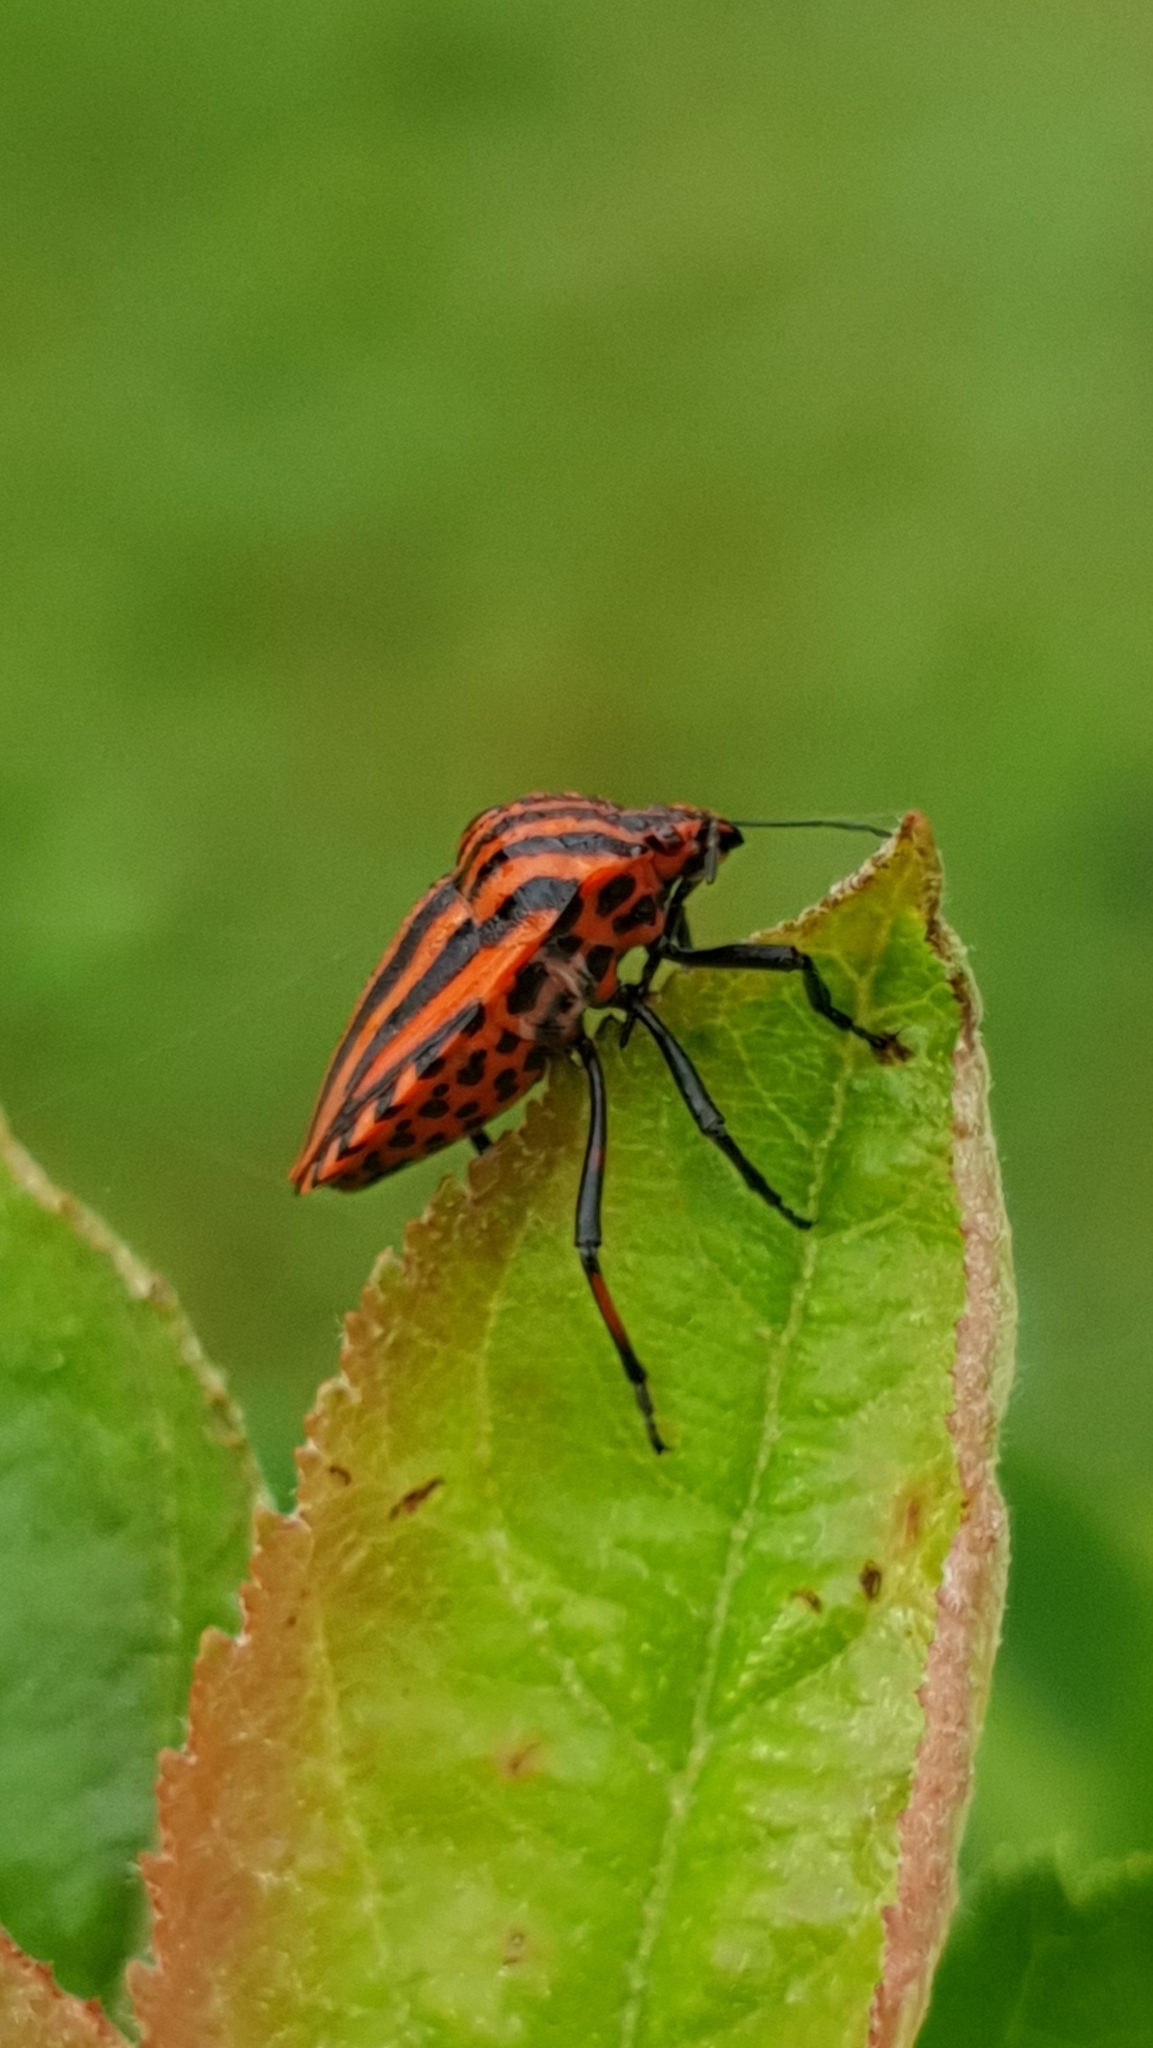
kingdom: Animalia
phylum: Arthropoda
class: Insecta
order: Hemiptera
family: Pentatomidae
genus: Graphosoma
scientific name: Graphosoma italicum
